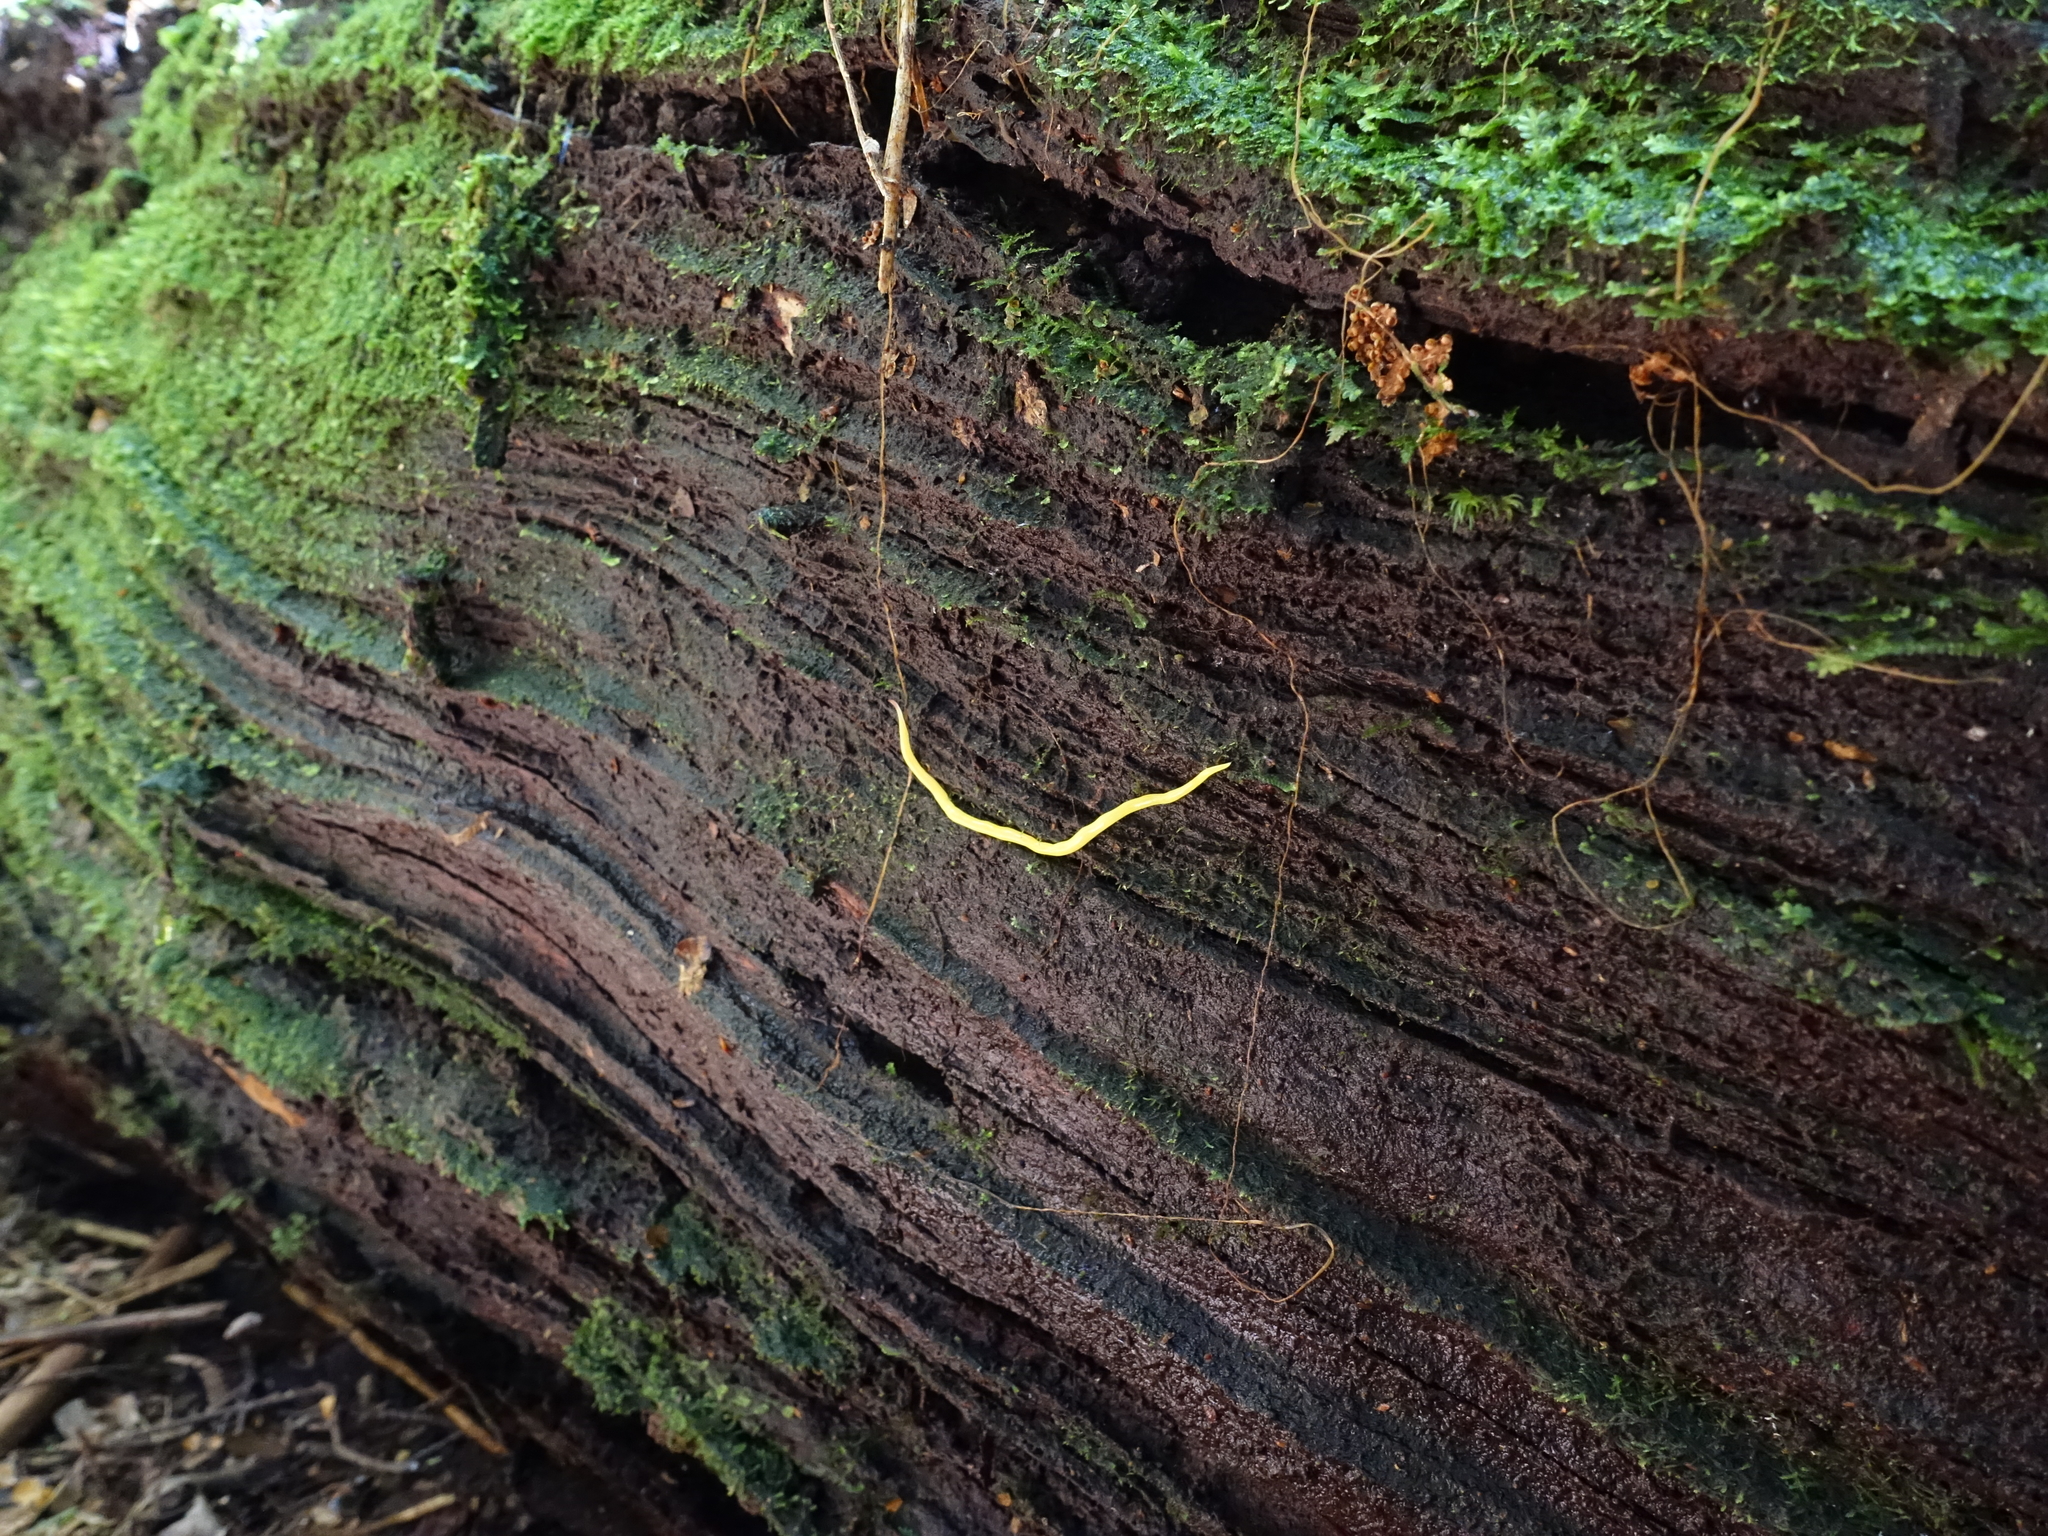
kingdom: Animalia
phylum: Platyhelminthes
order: Tricladida
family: Geoplanidae
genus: Fletchamia
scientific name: Fletchamia sugdeni
